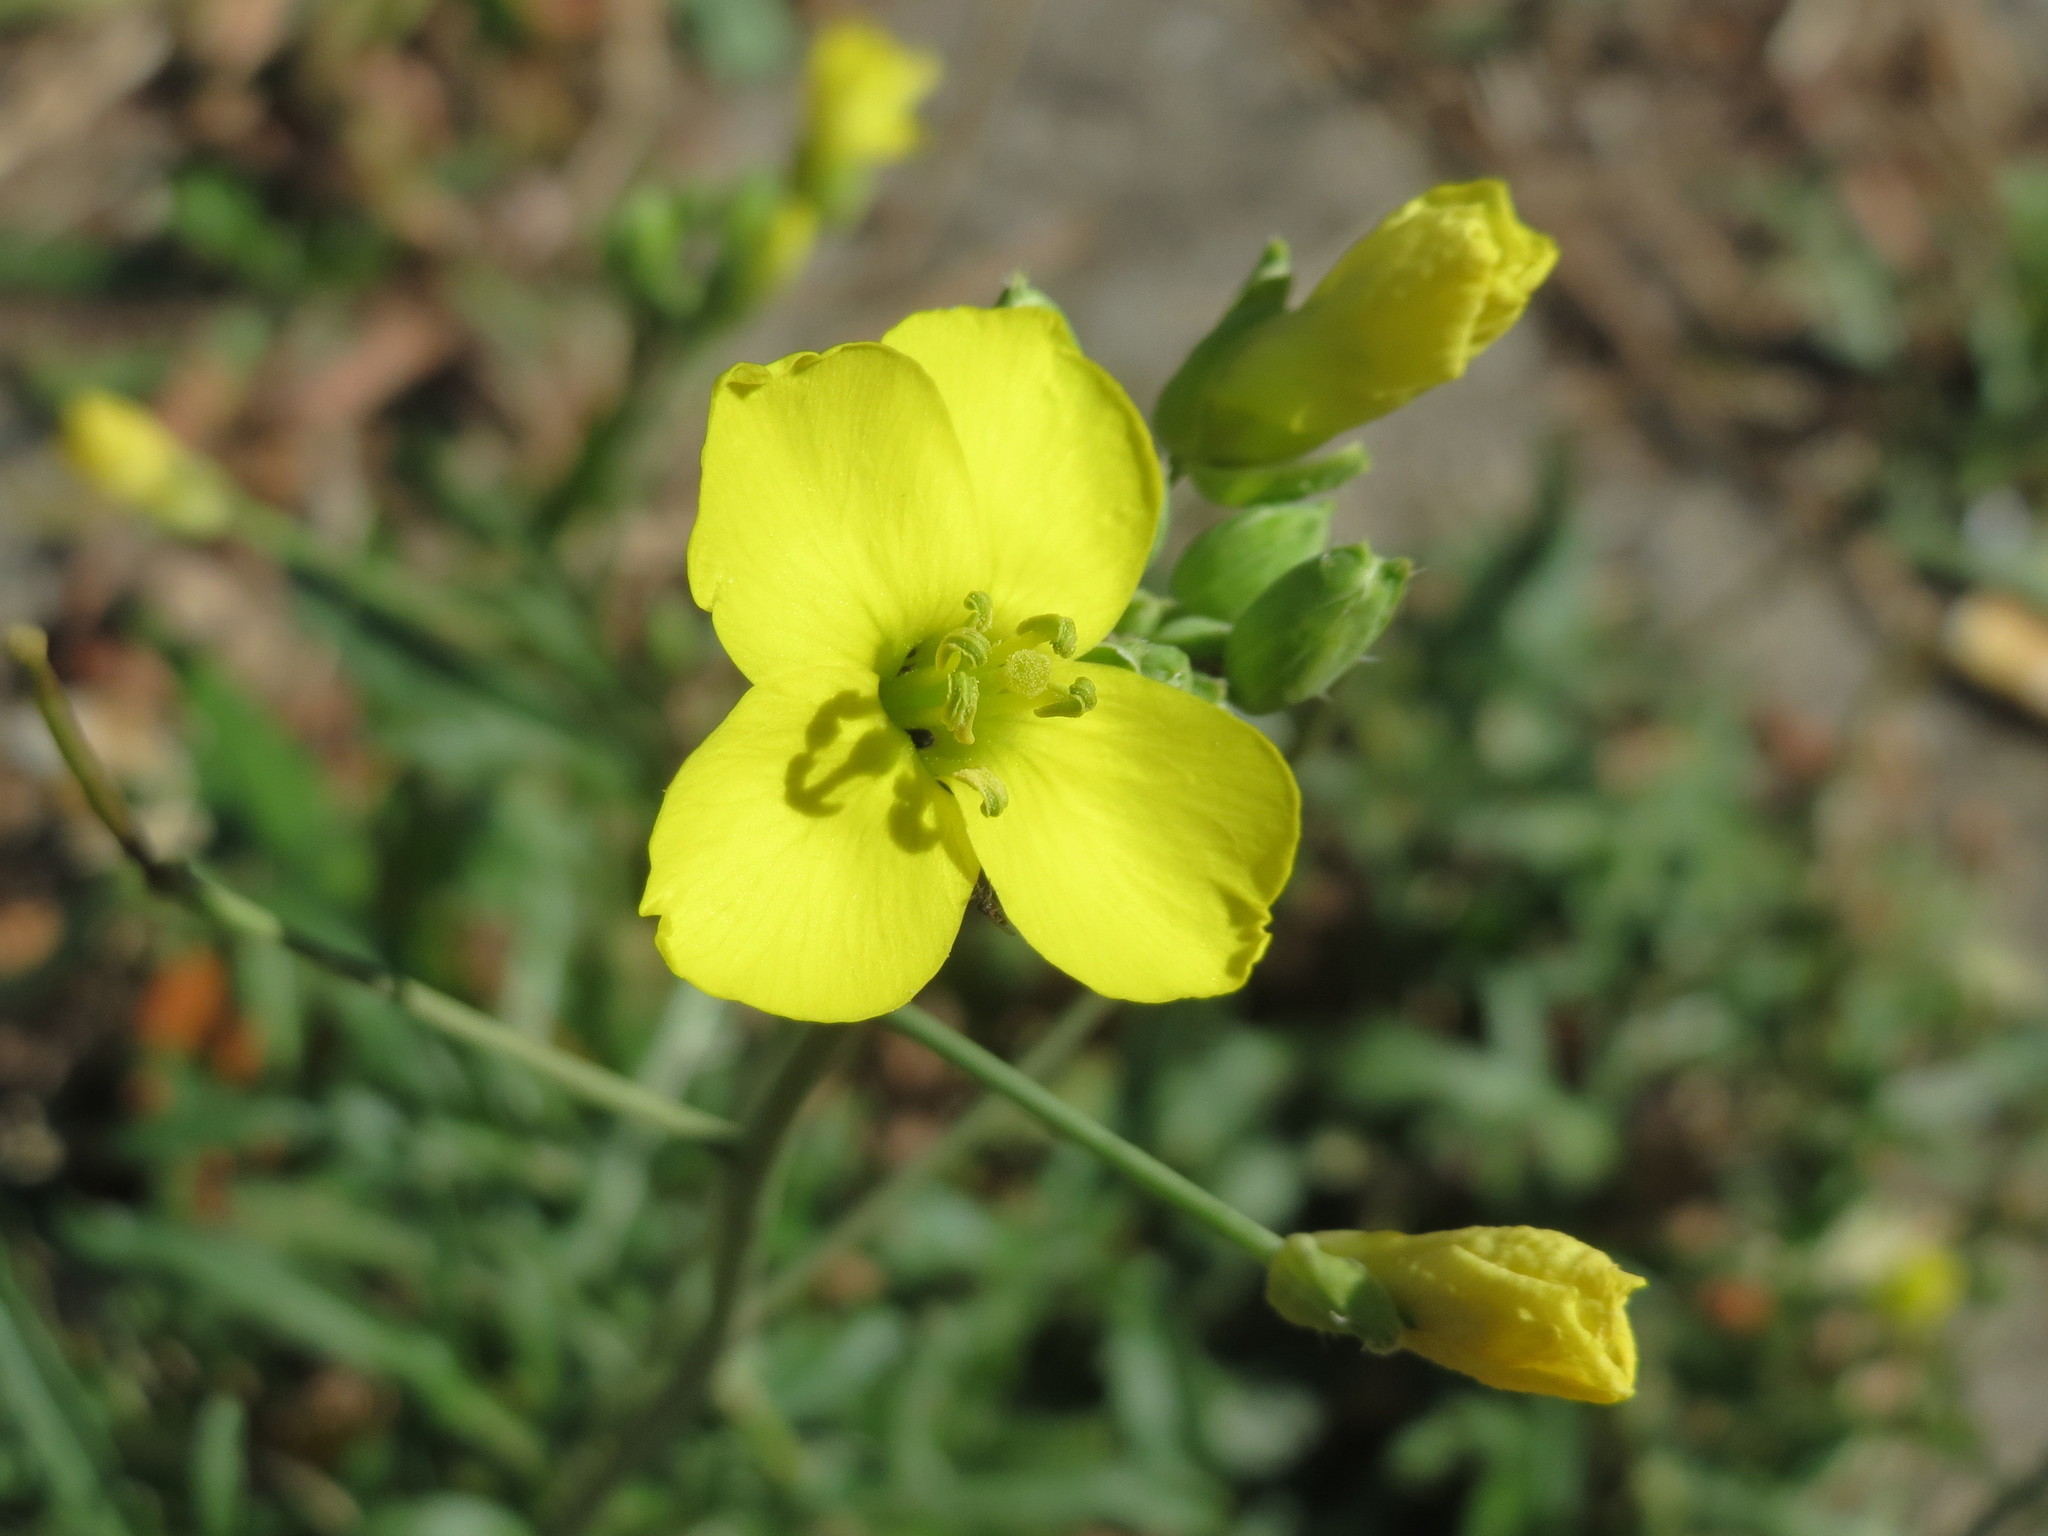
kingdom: Plantae
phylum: Tracheophyta
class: Magnoliopsida
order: Brassicales
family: Brassicaceae
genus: Diplotaxis
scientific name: Diplotaxis tenuifolia
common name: Perennial wall-rocket
